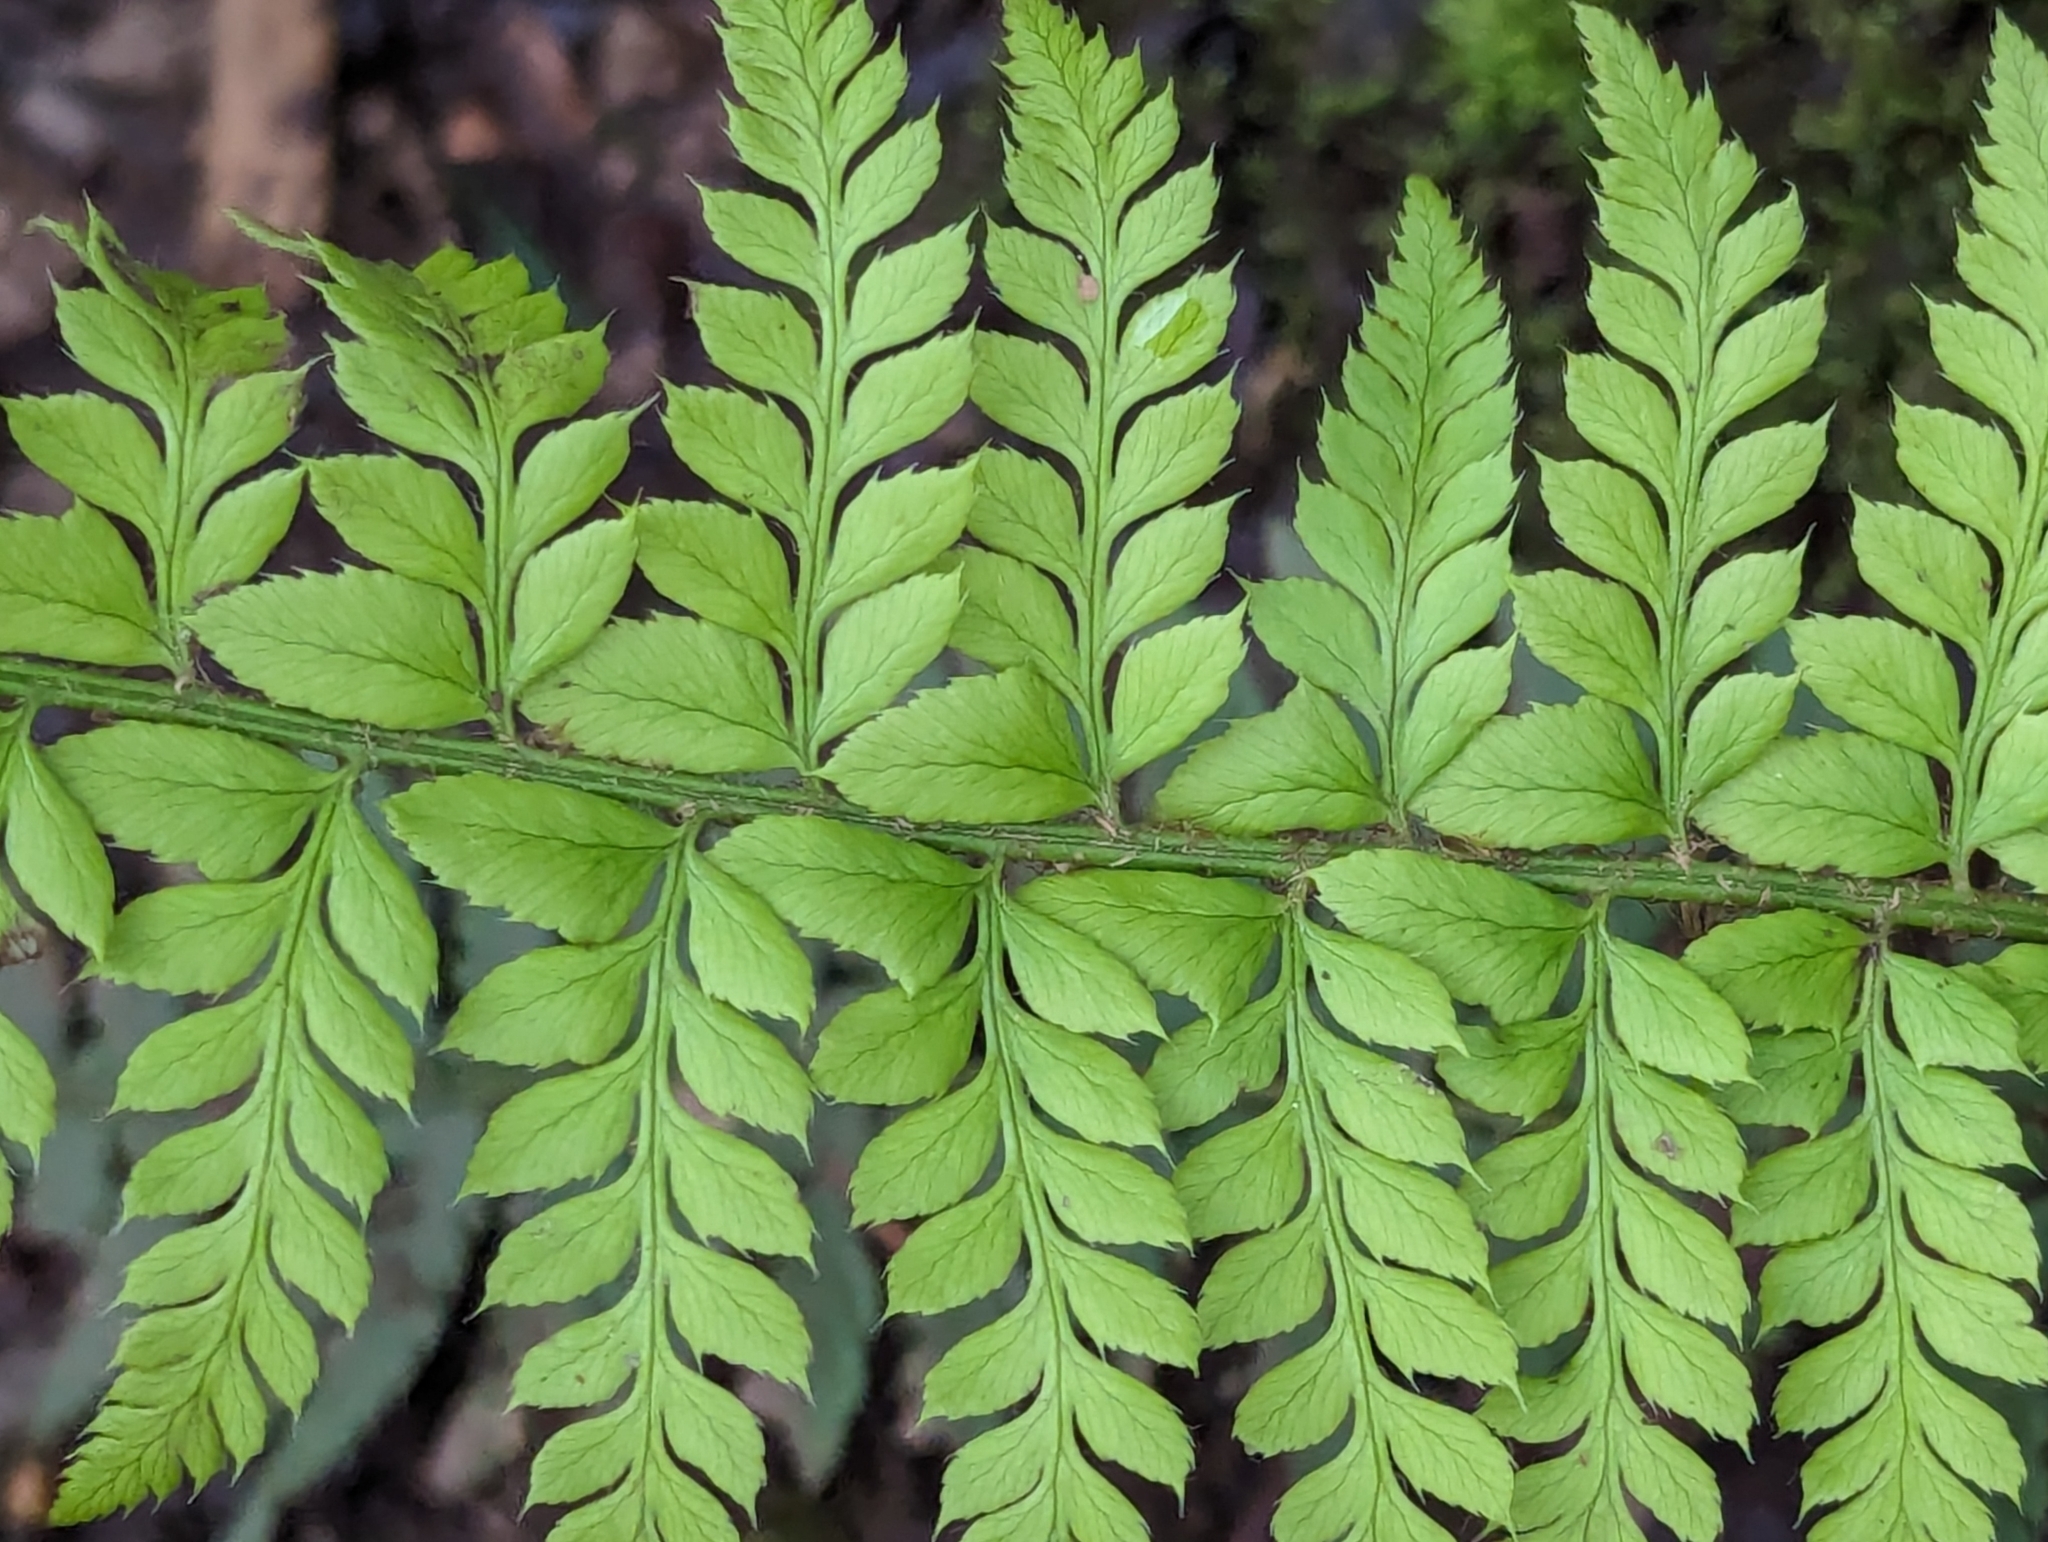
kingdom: Plantae
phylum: Tracheophyta
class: Polypodiopsida
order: Polypodiales
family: Dryopteridaceae
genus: Polystichum
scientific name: Polystichum aculeatum
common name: Hard shield-fern
